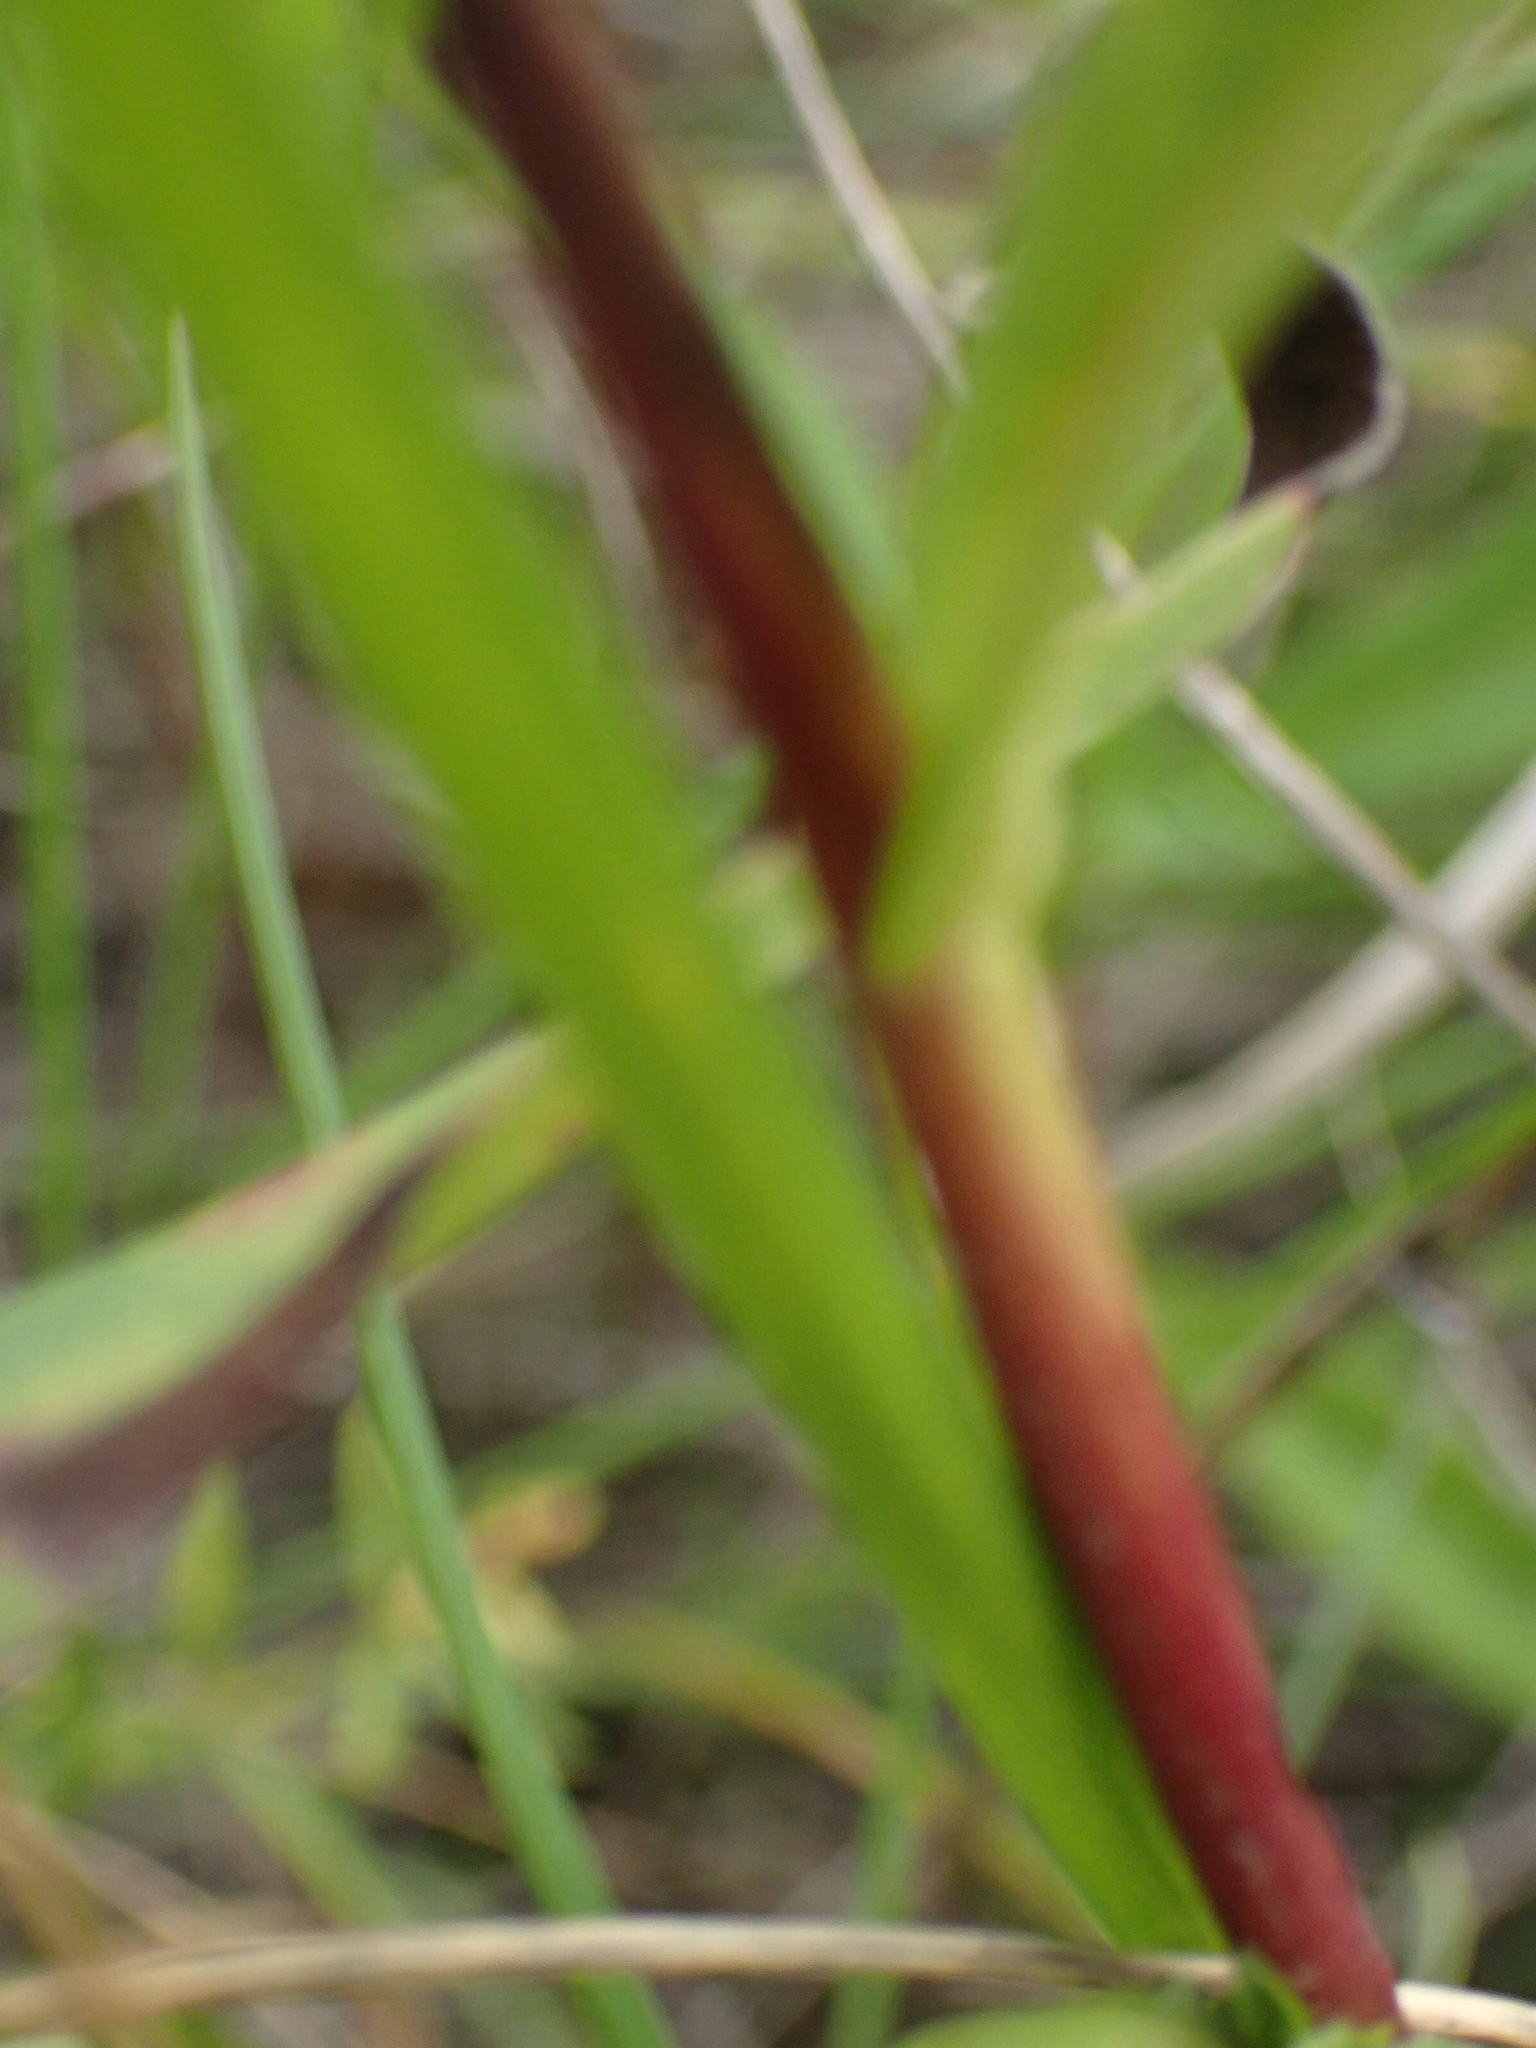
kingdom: Plantae
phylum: Tracheophyta
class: Magnoliopsida
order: Asterales
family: Asteraceae
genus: Solidago
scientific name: Solidago ptarmicoides
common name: White flat-top goldenrod
